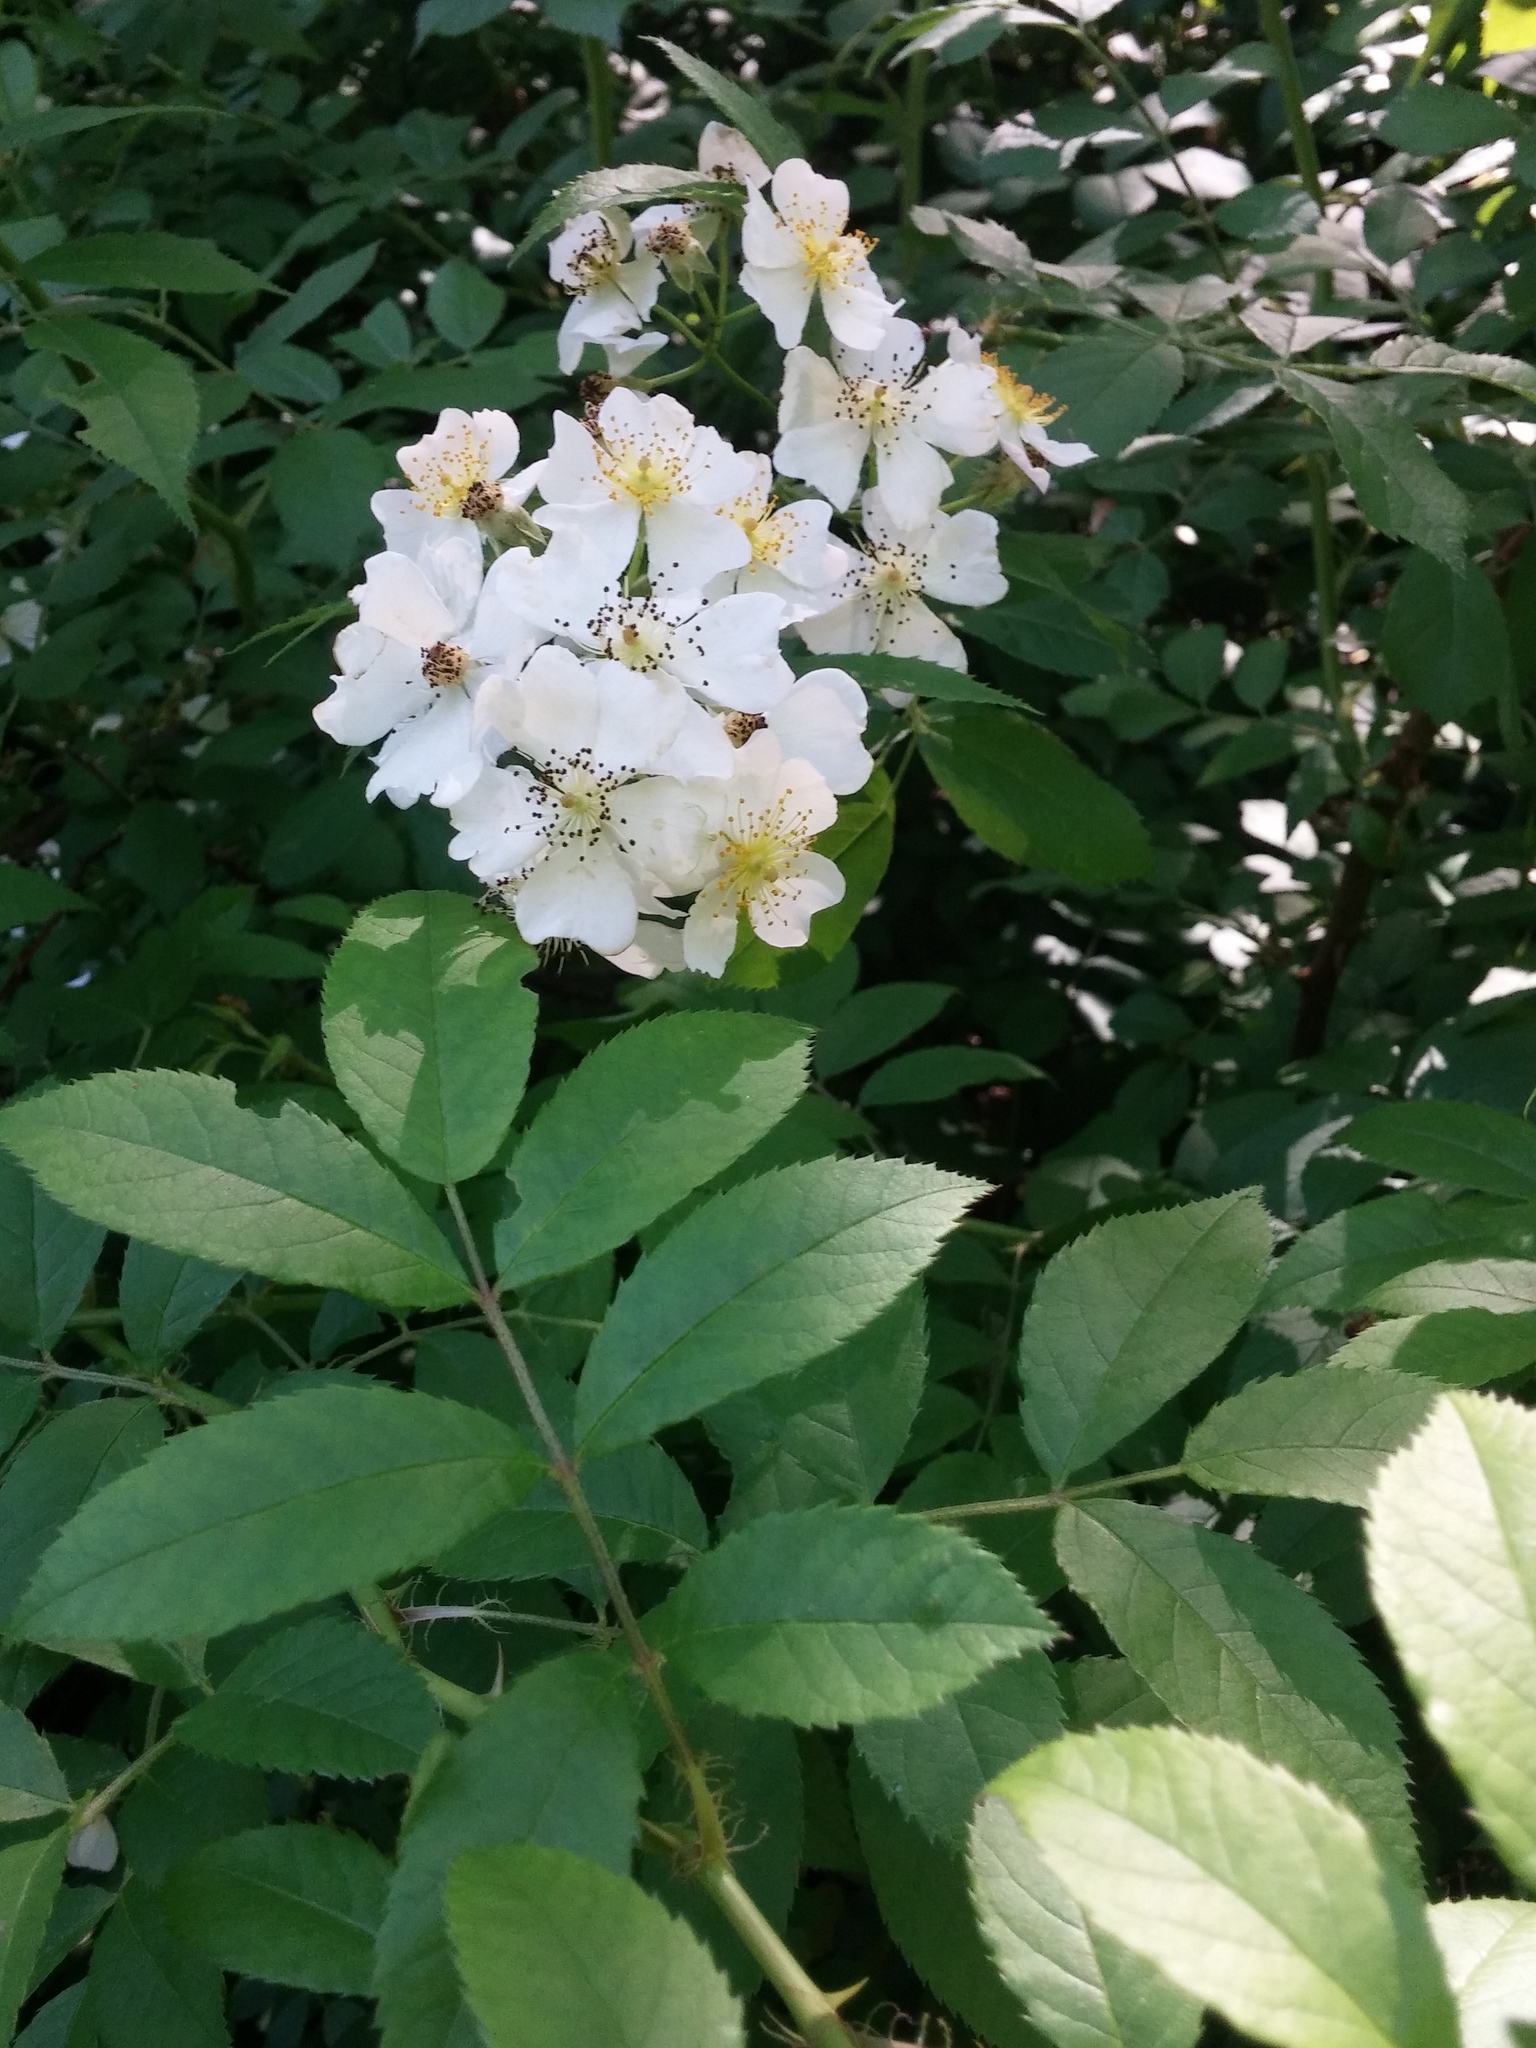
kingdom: Plantae
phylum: Tracheophyta
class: Magnoliopsida
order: Rosales
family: Rosaceae
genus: Rosa
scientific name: Rosa multiflora
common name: Multiflora rose
